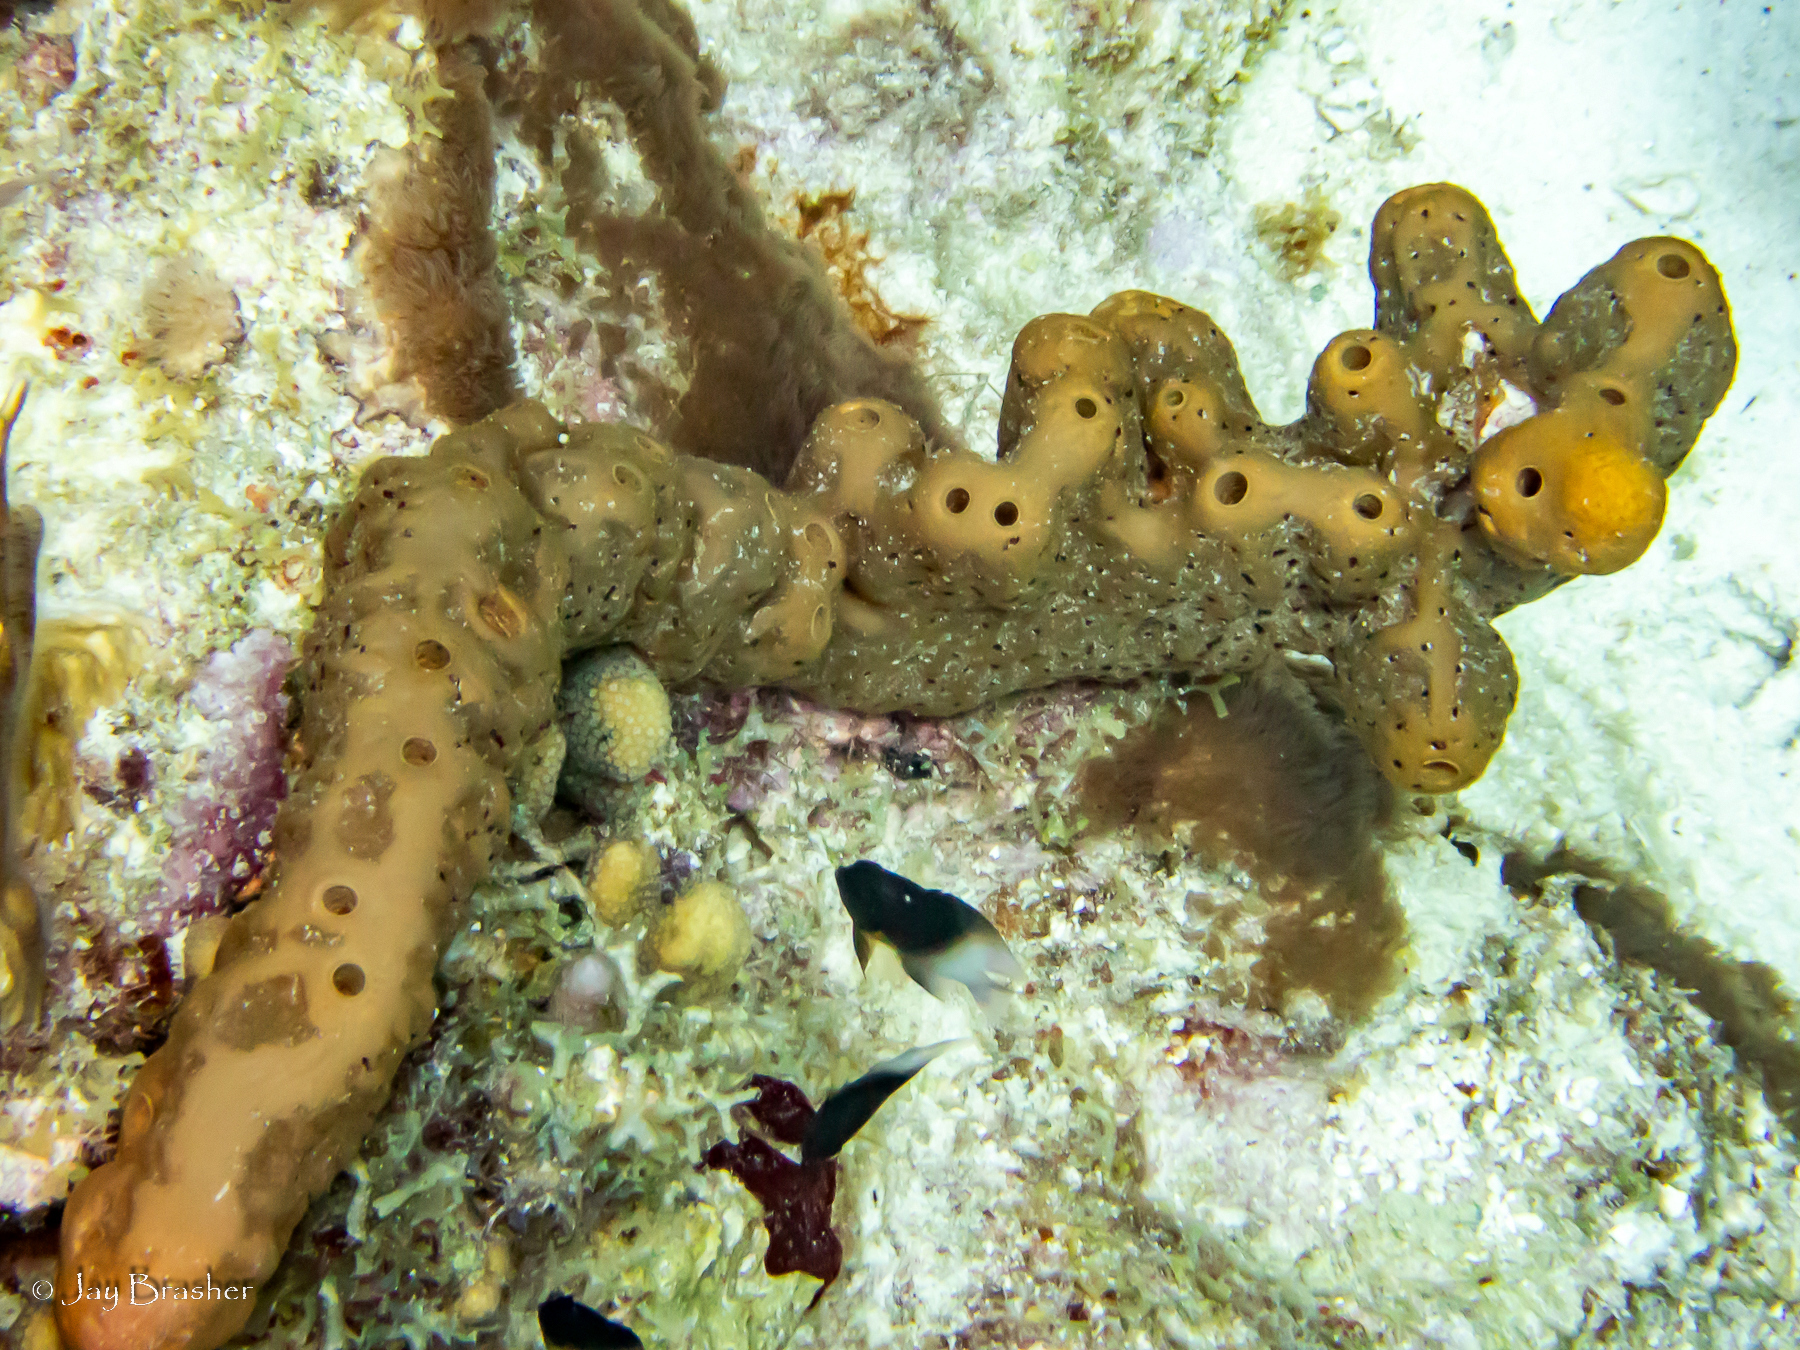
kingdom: Animalia
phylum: Chordata
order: Perciformes
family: Pomacentridae
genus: Stegastes
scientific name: Stegastes partitus
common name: Bicolor damselfish
